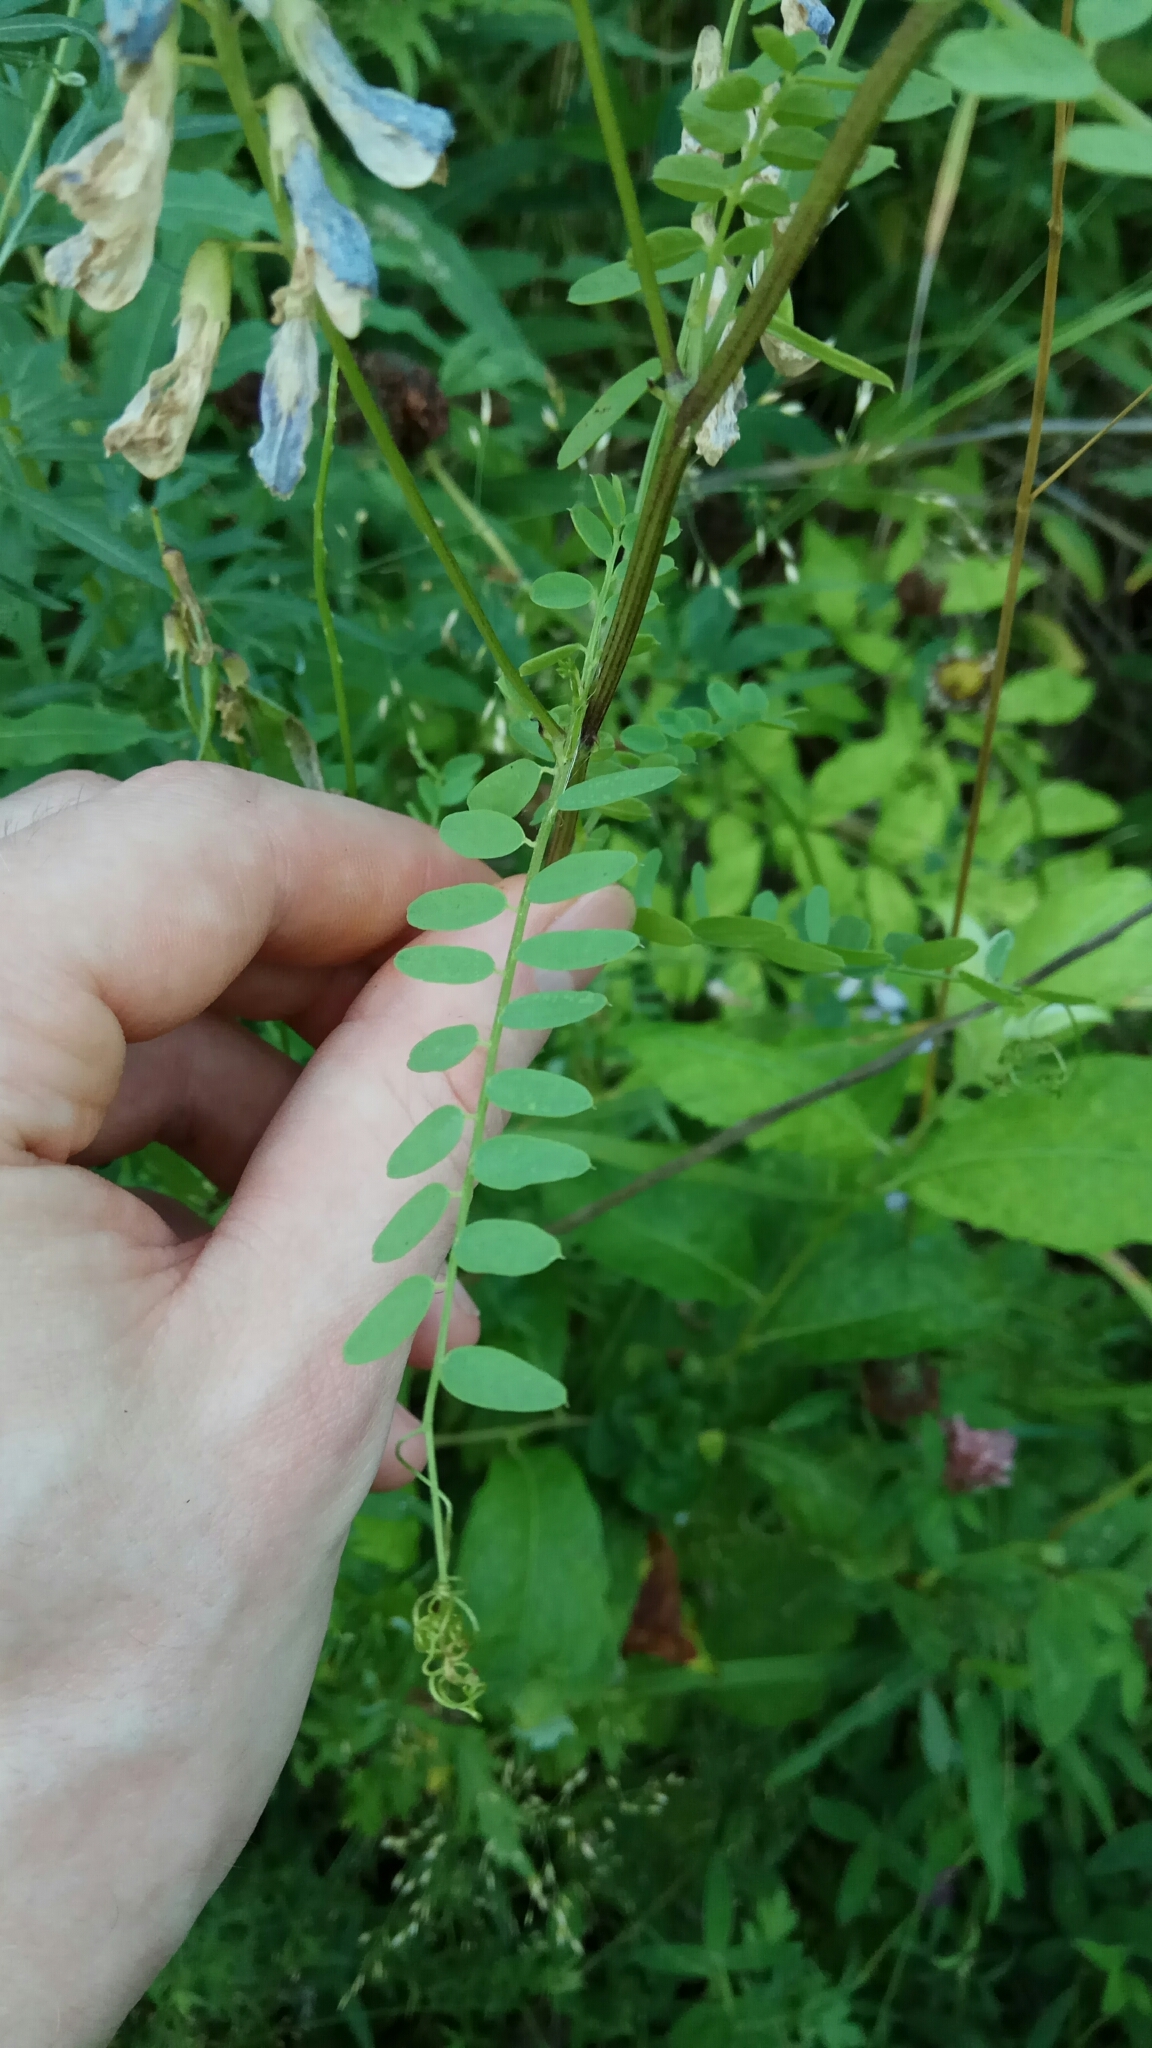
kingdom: Plantae
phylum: Tracheophyta
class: Magnoliopsida
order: Fabales
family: Fabaceae
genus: Vicia
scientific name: Vicia sylvatica
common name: Wood vetch
